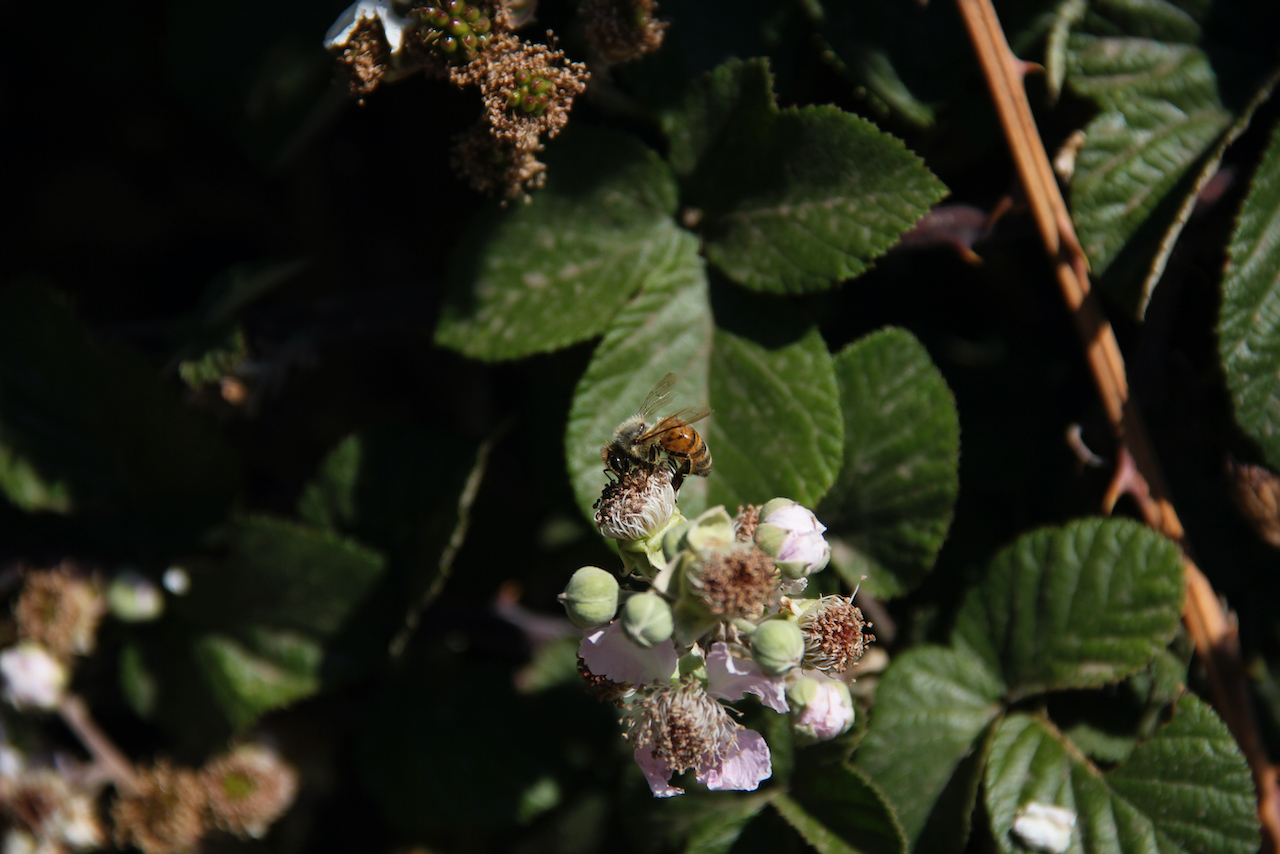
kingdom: Animalia
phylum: Arthropoda
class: Insecta
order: Hymenoptera
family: Apidae
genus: Apis
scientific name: Apis mellifera
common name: Honey bee
